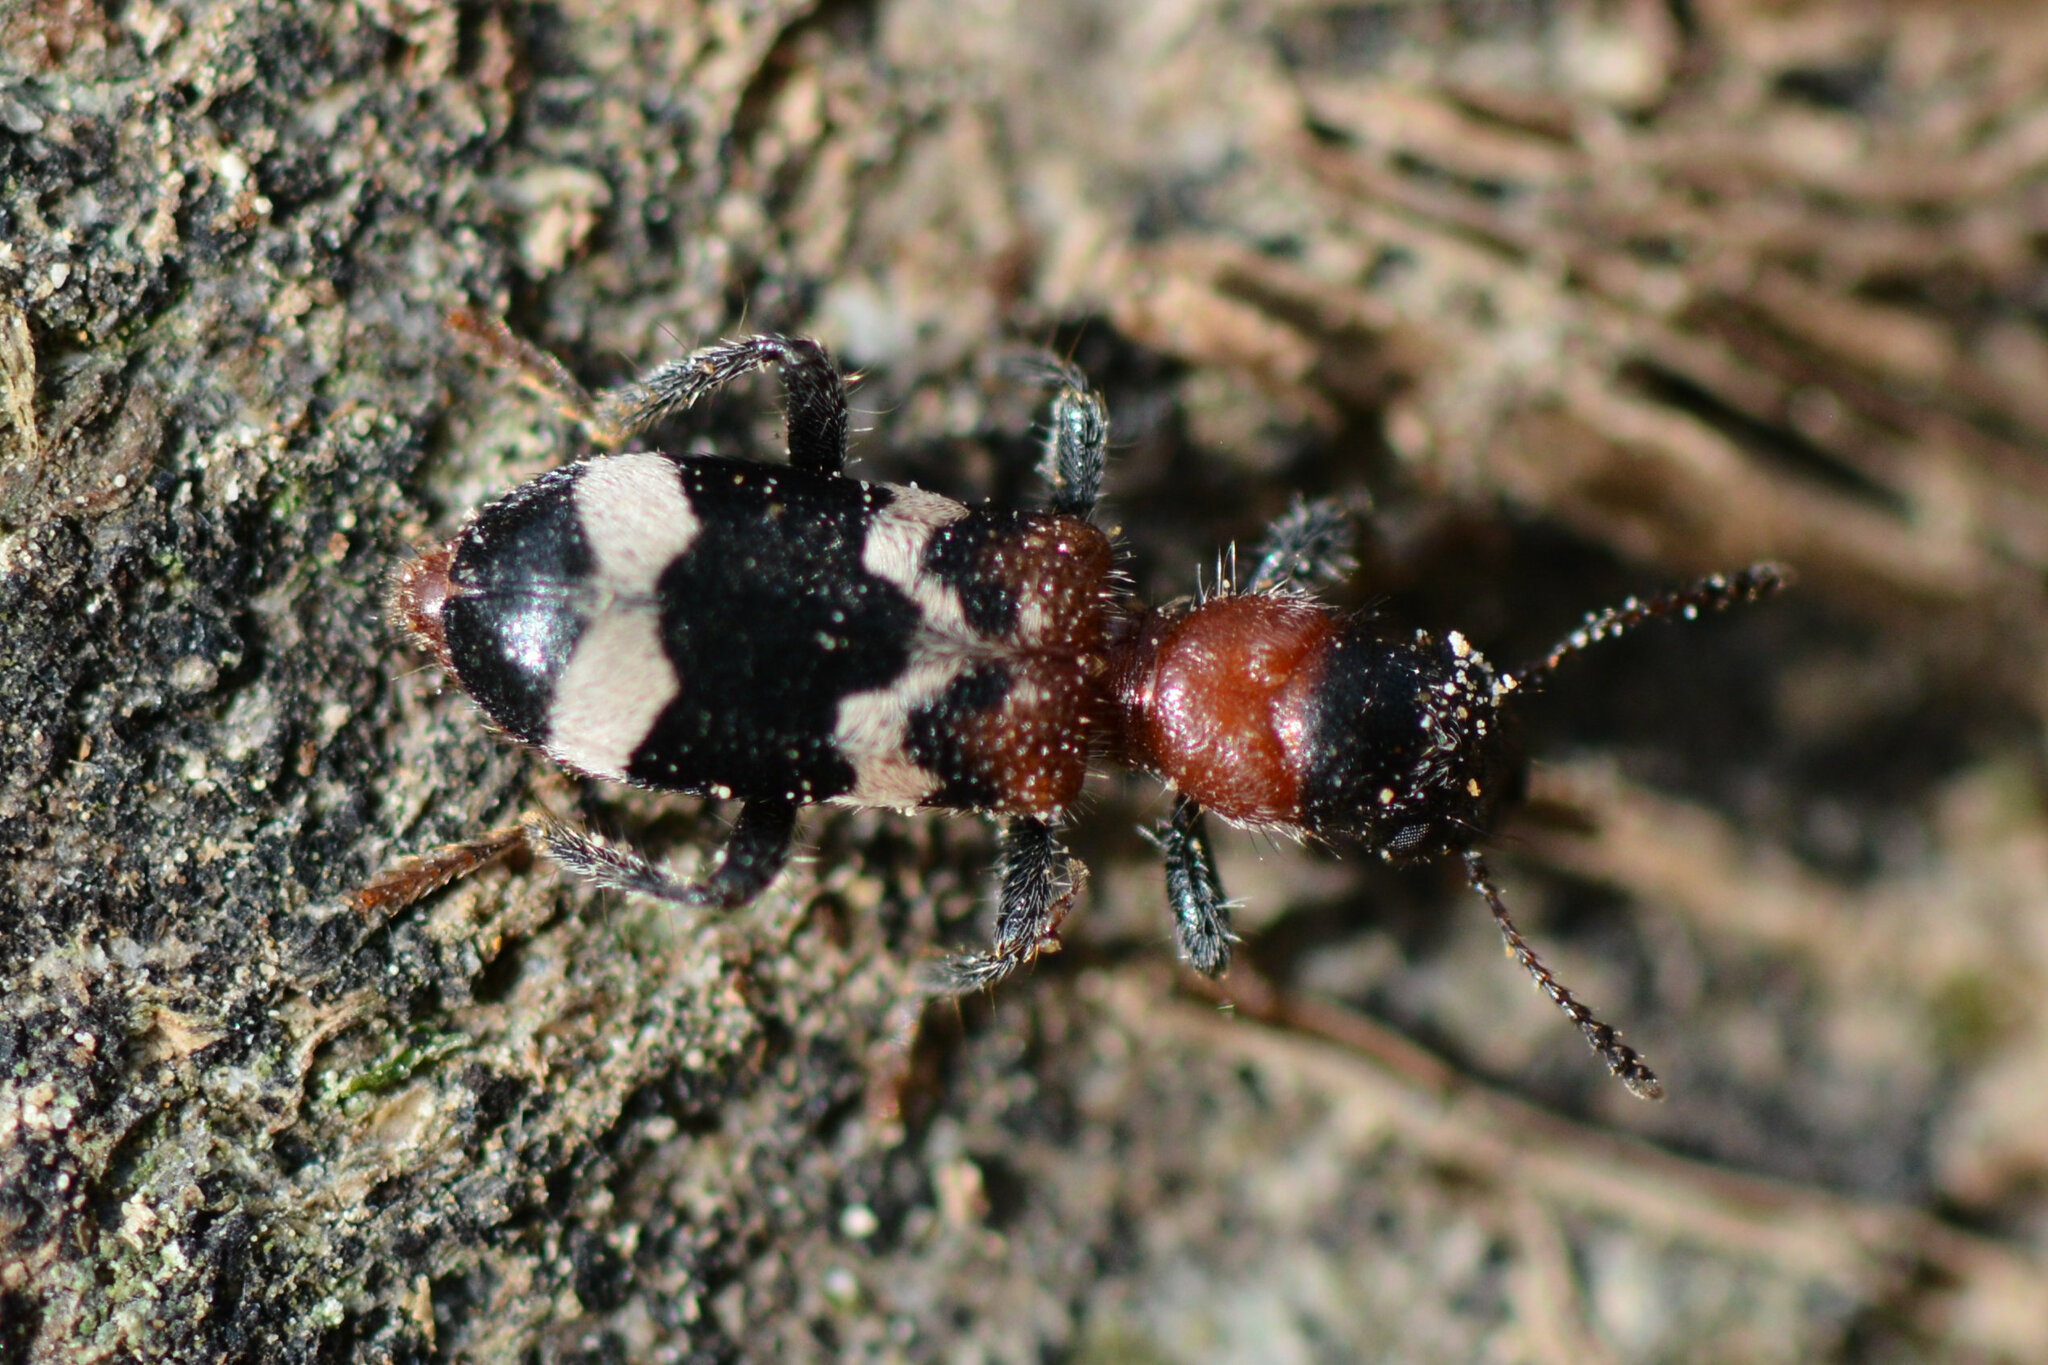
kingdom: Animalia
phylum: Arthropoda
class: Insecta
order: Coleoptera
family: Cleridae
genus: Thanasimus
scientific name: Thanasimus formicarius
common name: Ant beetle
